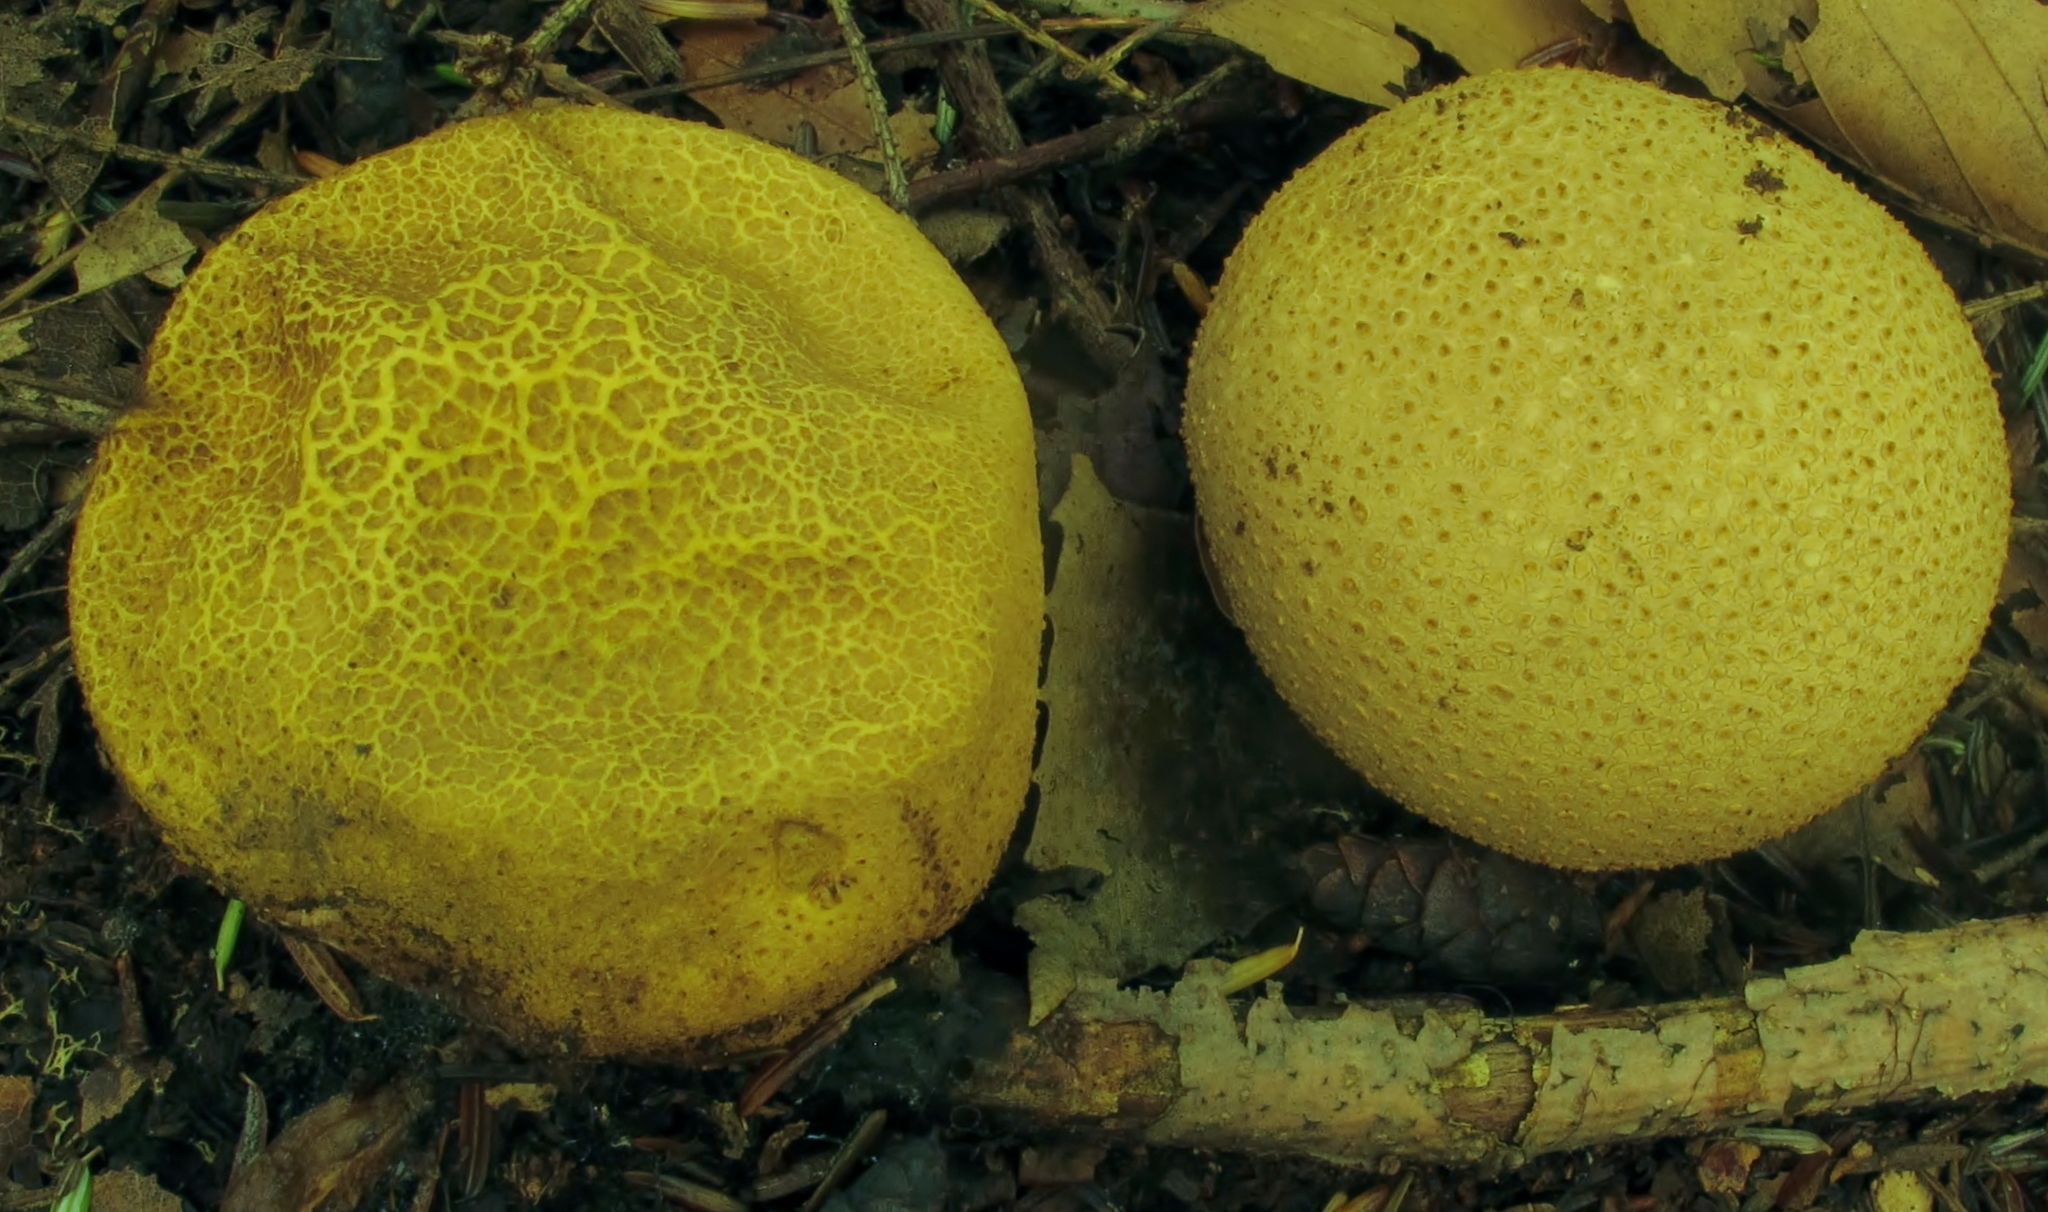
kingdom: Fungi
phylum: Basidiomycota
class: Agaricomycetes
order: Boletales
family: Sclerodermataceae
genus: Scleroderma
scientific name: Scleroderma citrinum
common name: Common earthball
